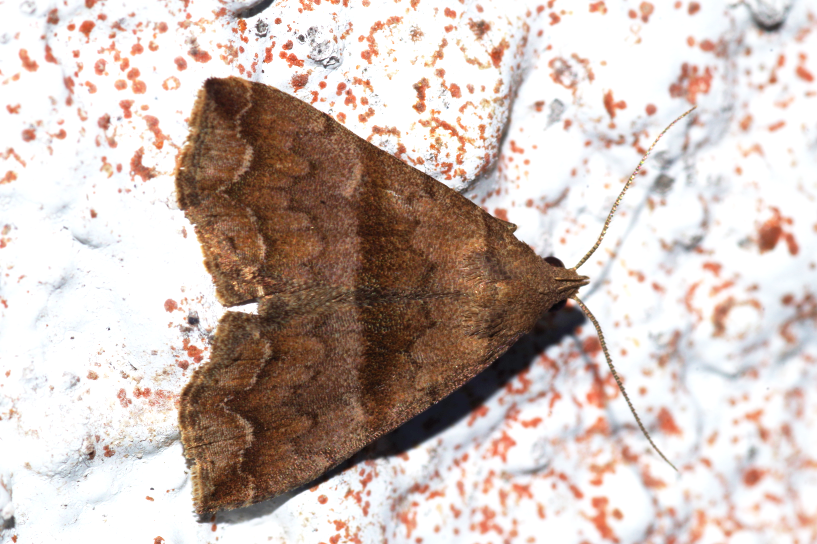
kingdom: Animalia
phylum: Arthropoda
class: Insecta
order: Lepidoptera
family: Erebidae
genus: Polypogon
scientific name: Polypogon Hipoepa fractalis
